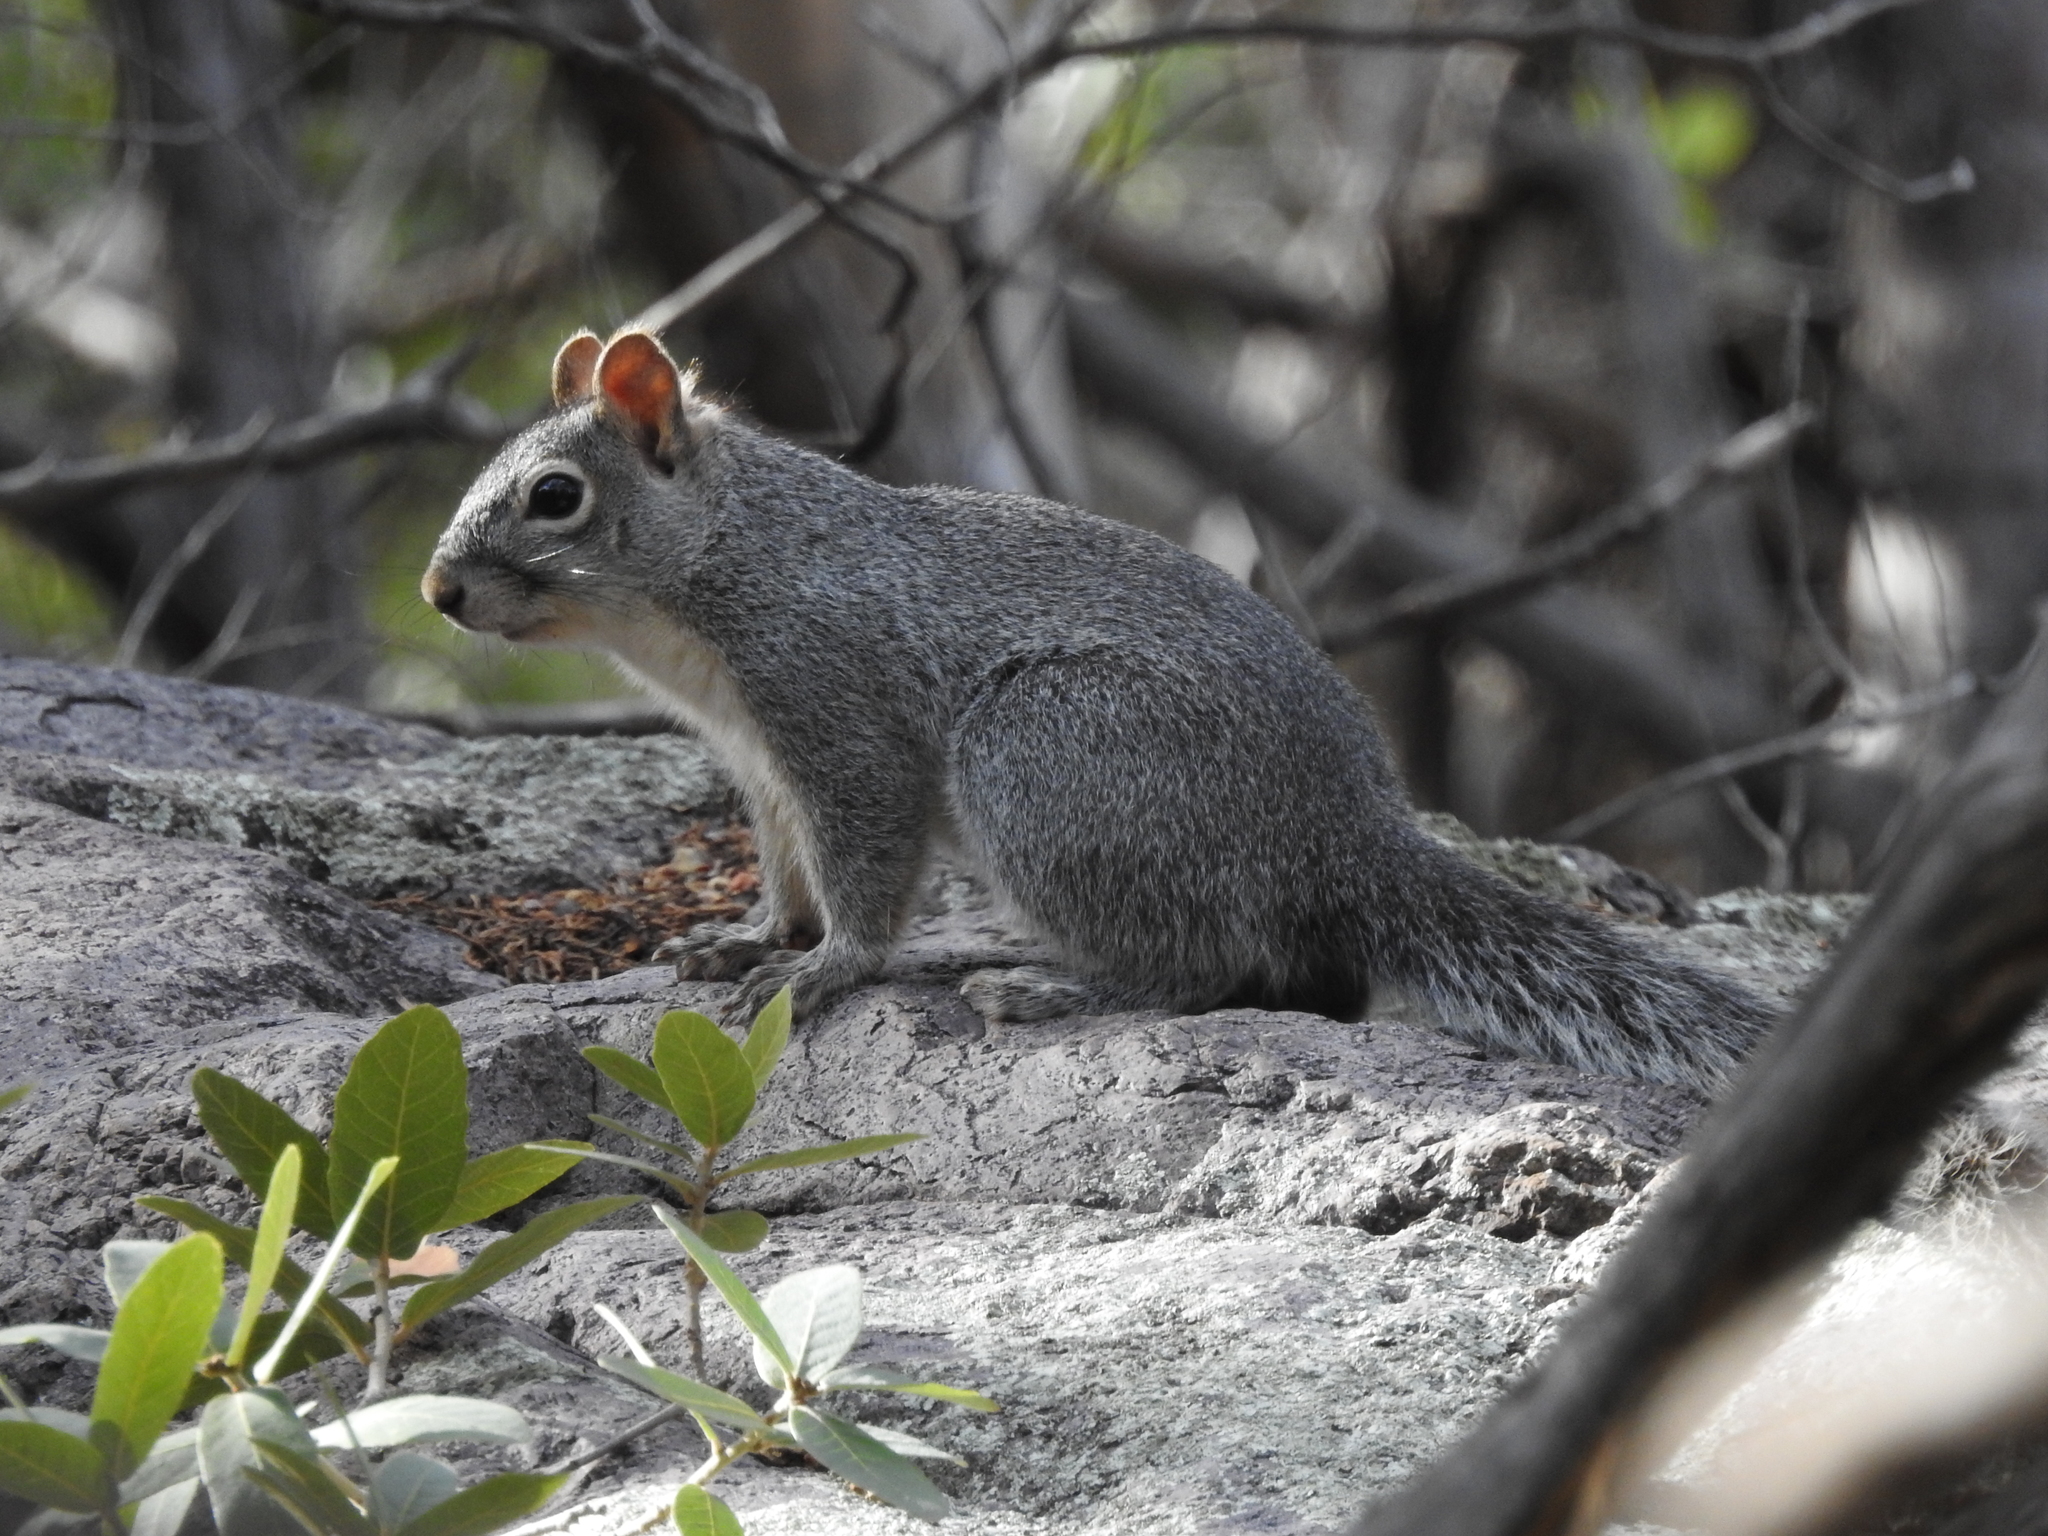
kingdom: Animalia
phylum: Chordata
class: Mammalia
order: Rodentia
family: Sciuridae
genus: Sciurus
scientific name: Sciurus arizonensis
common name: Arizona gray squirrel
